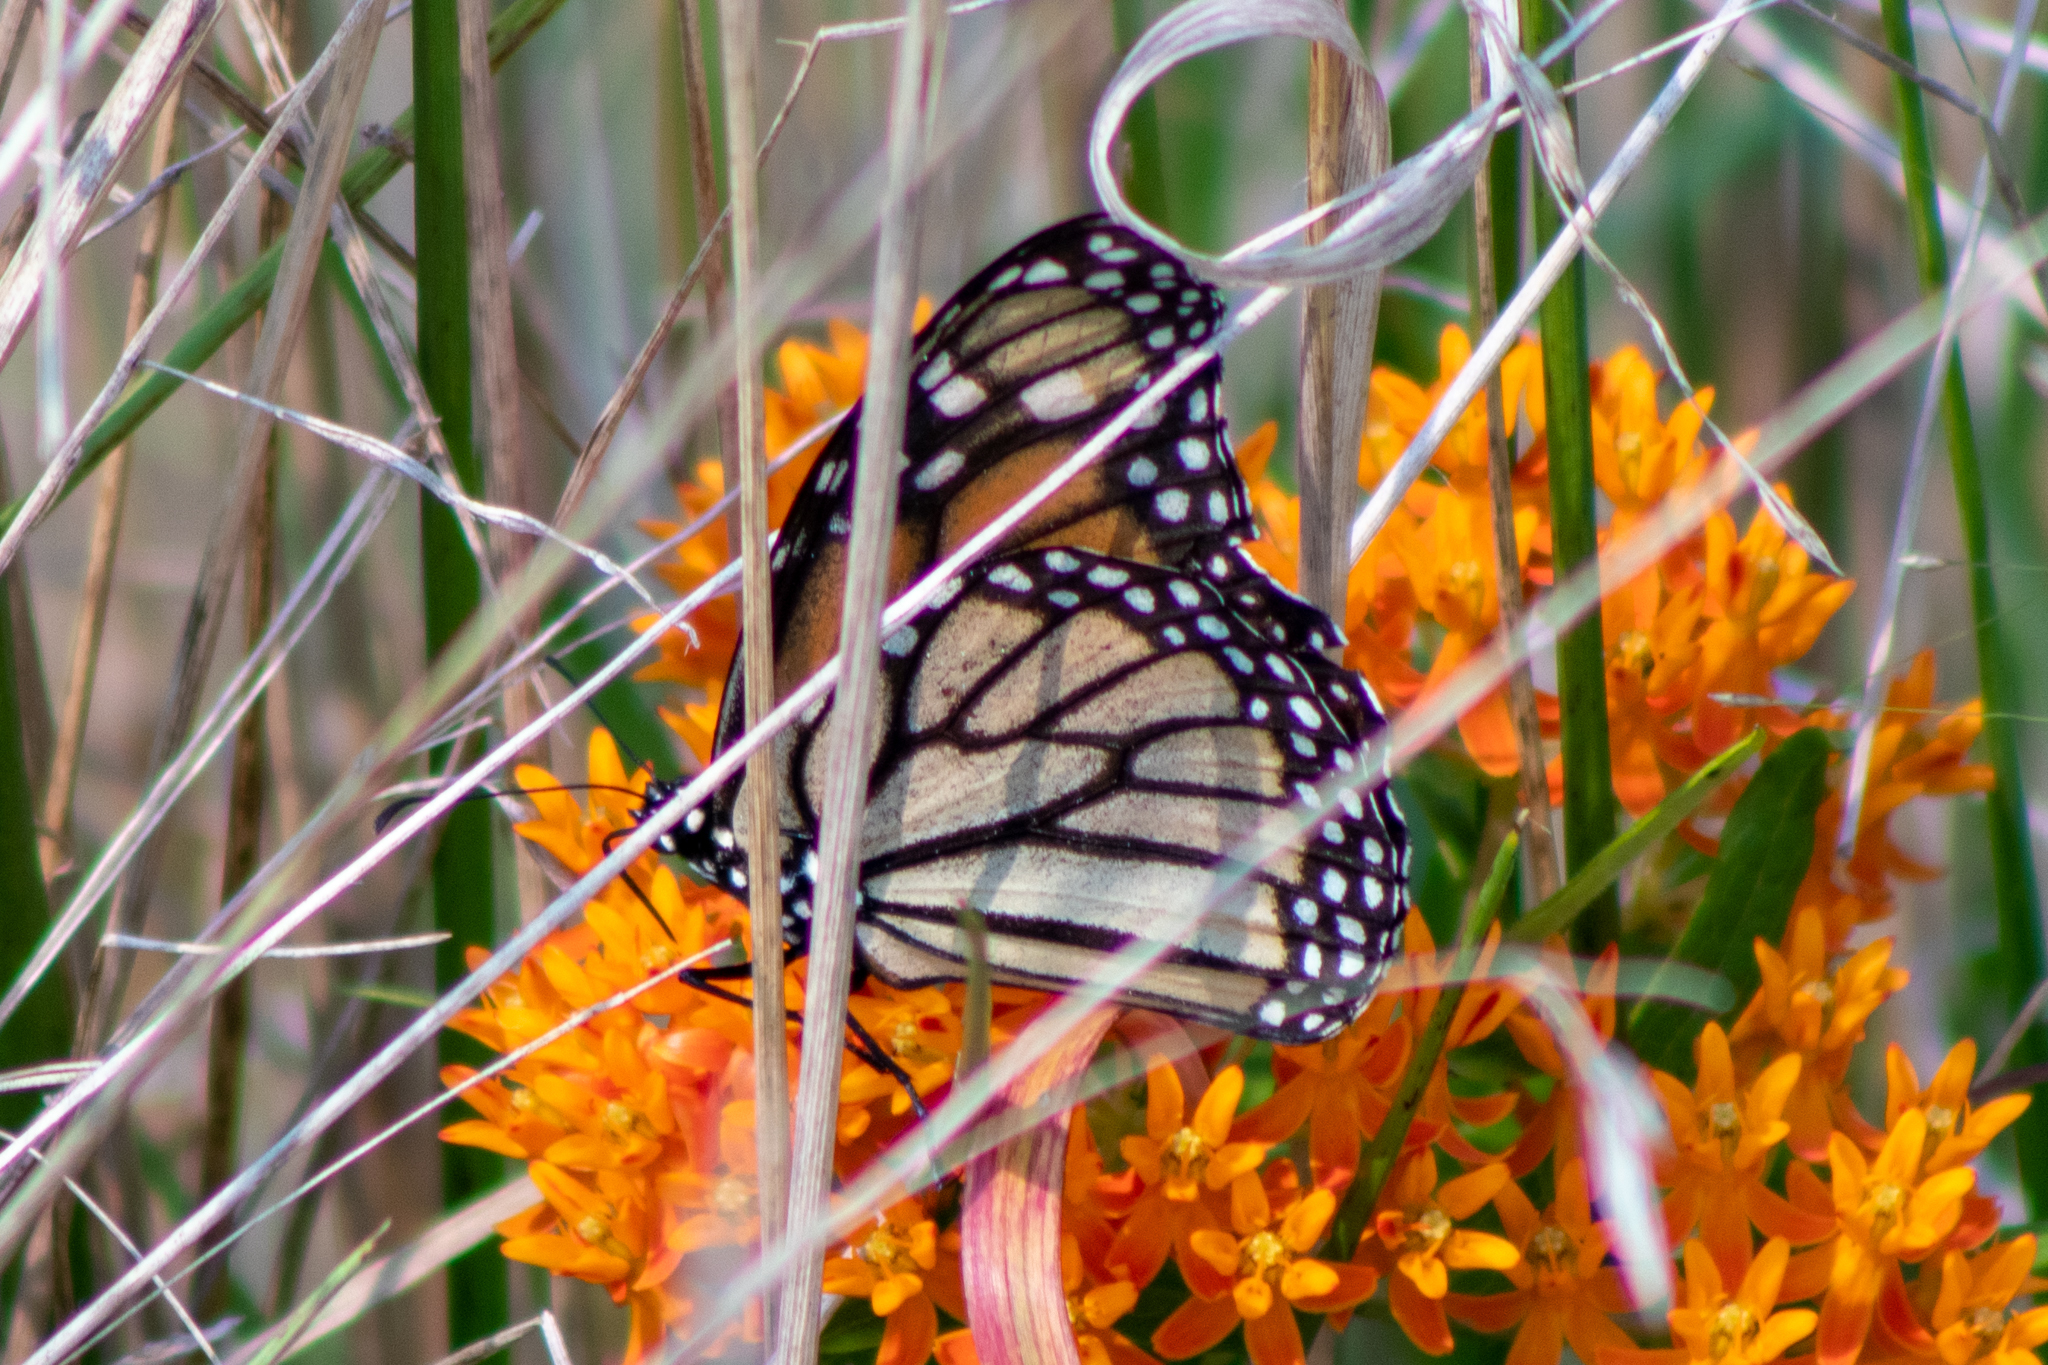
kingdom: Animalia
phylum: Arthropoda
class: Insecta
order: Lepidoptera
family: Nymphalidae
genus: Danaus
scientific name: Danaus plexippus
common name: Monarch
